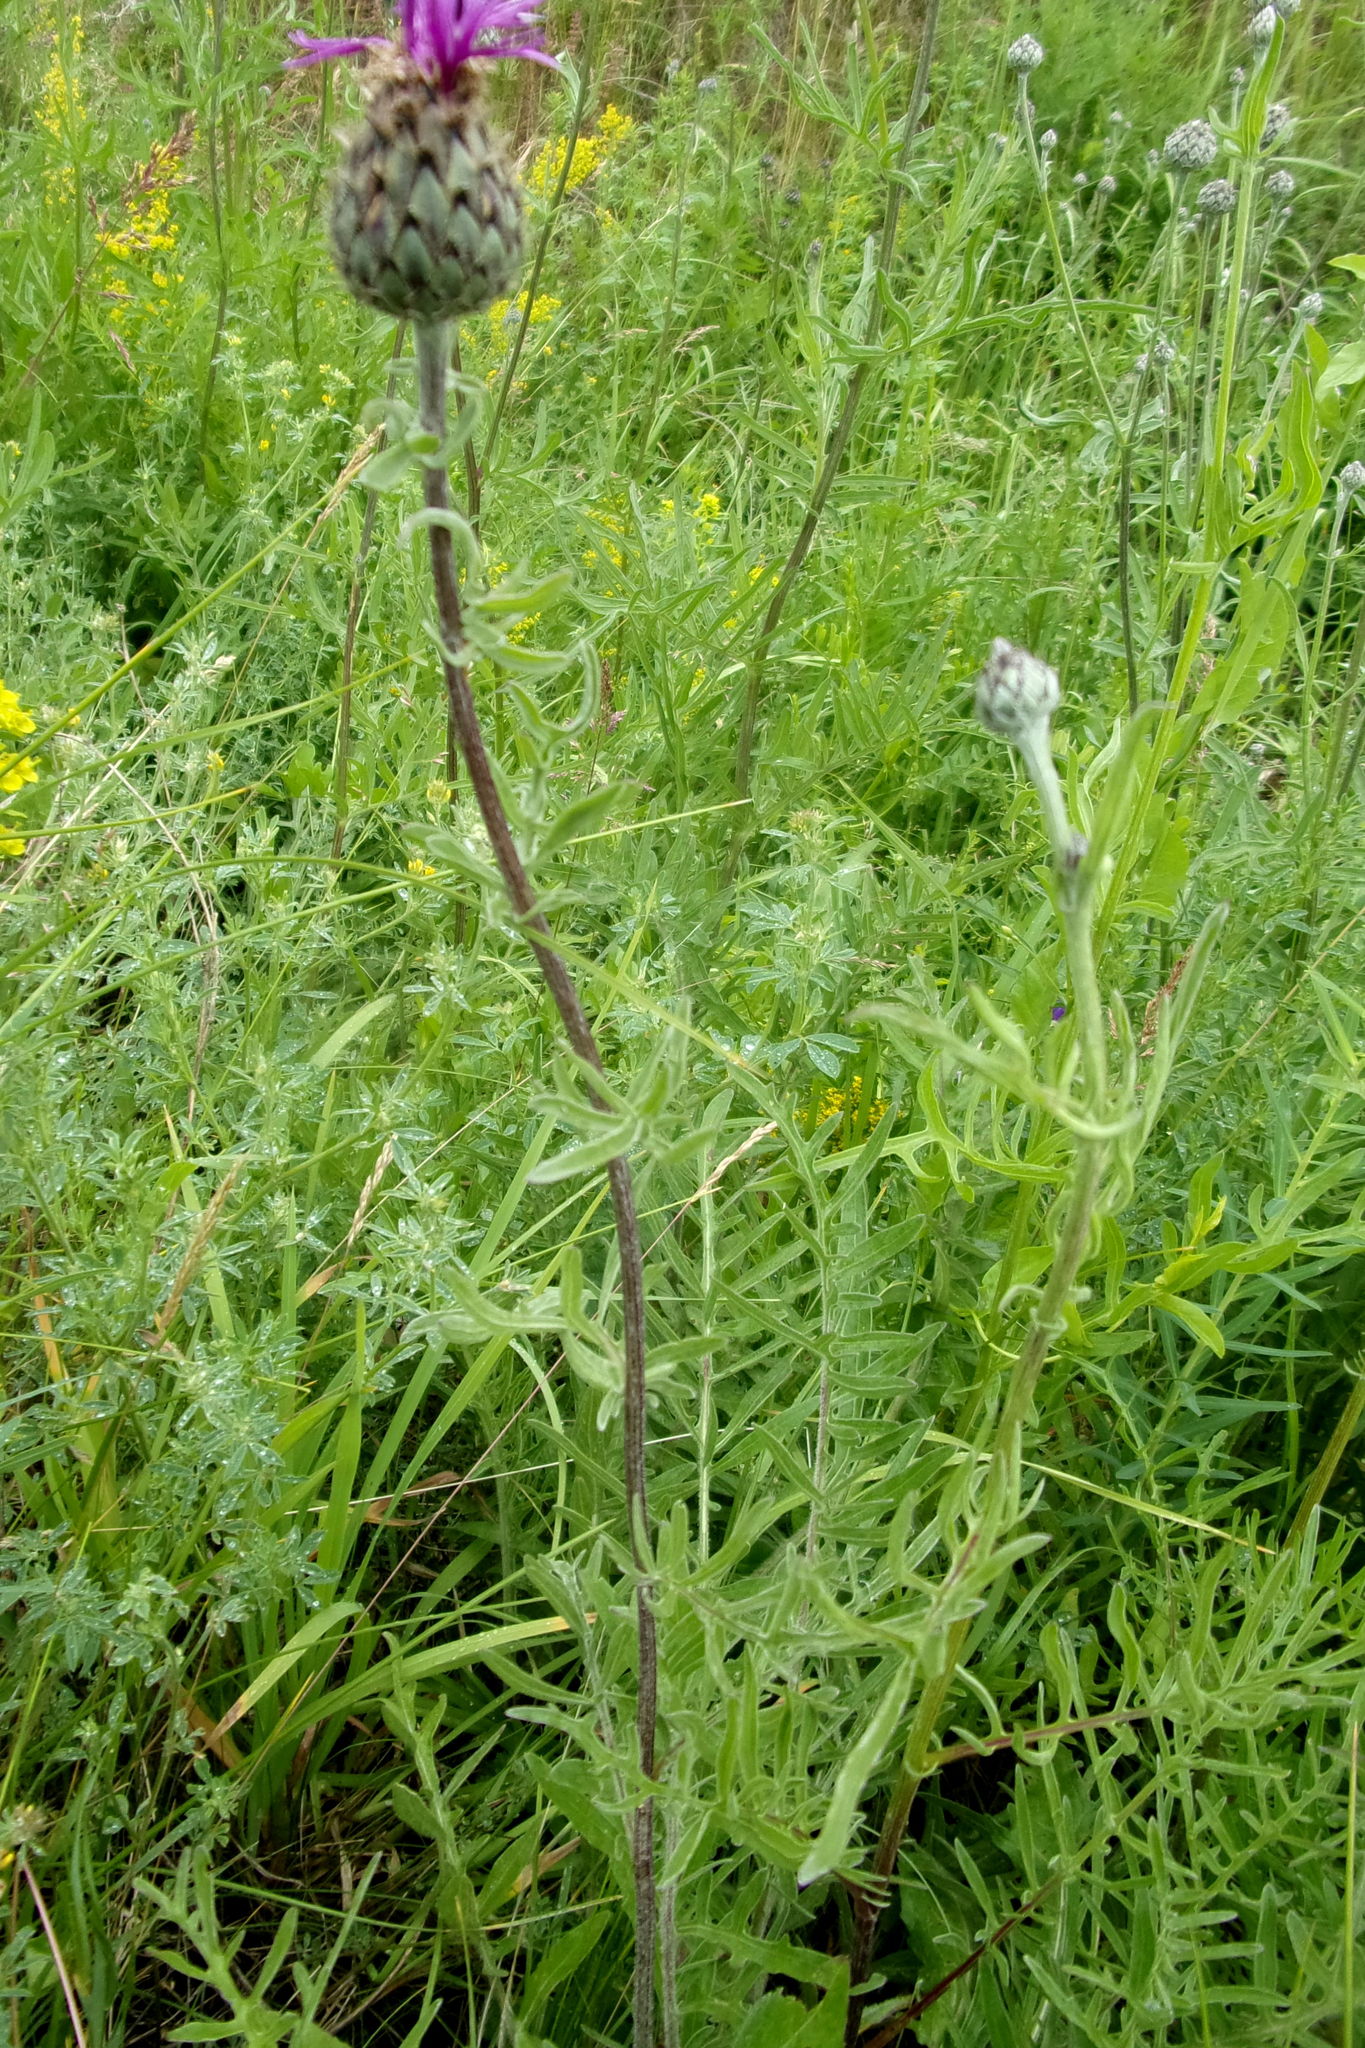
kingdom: Plantae
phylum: Tracheophyta
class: Magnoliopsida
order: Asterales
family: Asteraceae
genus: Centaurea
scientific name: Centaurea scabiosa
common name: Greater knapweed
